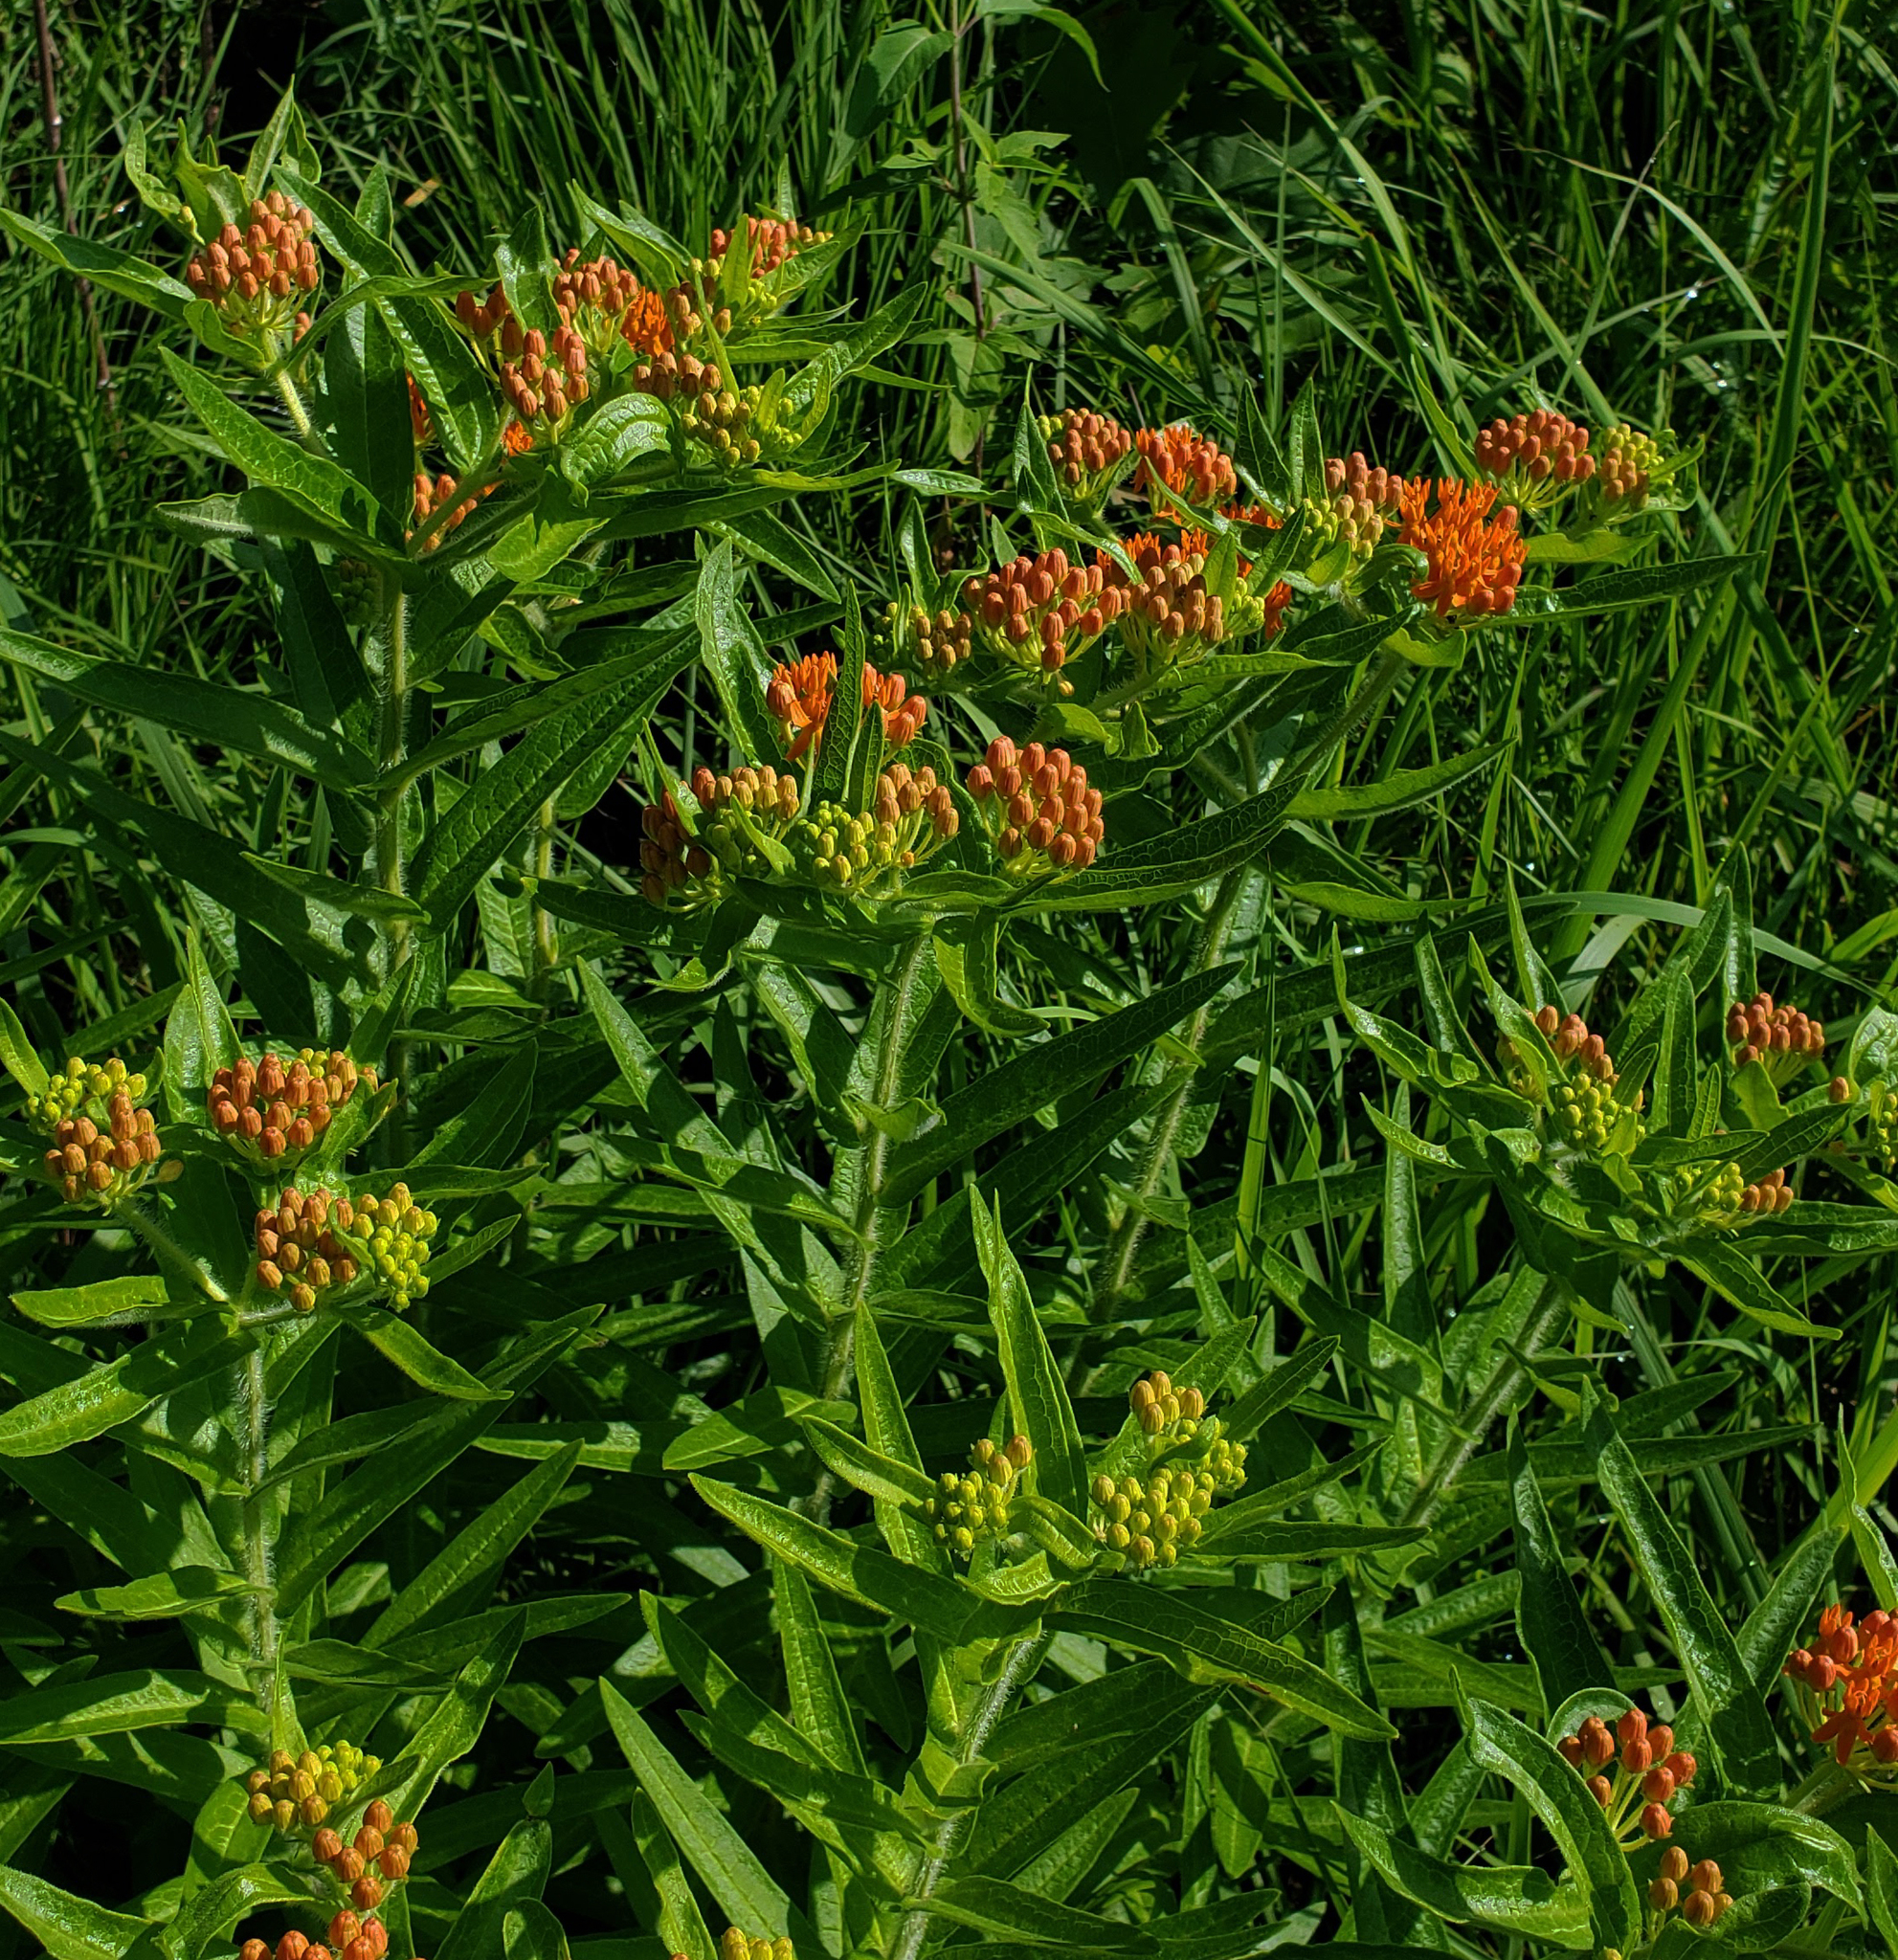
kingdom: Plantae
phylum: Tracheophyta
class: Magnoliopsida
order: Gentianales
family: Apocynaceae
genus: Asclepias
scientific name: Asclepias tuberosa
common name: Butterfly milkweed
